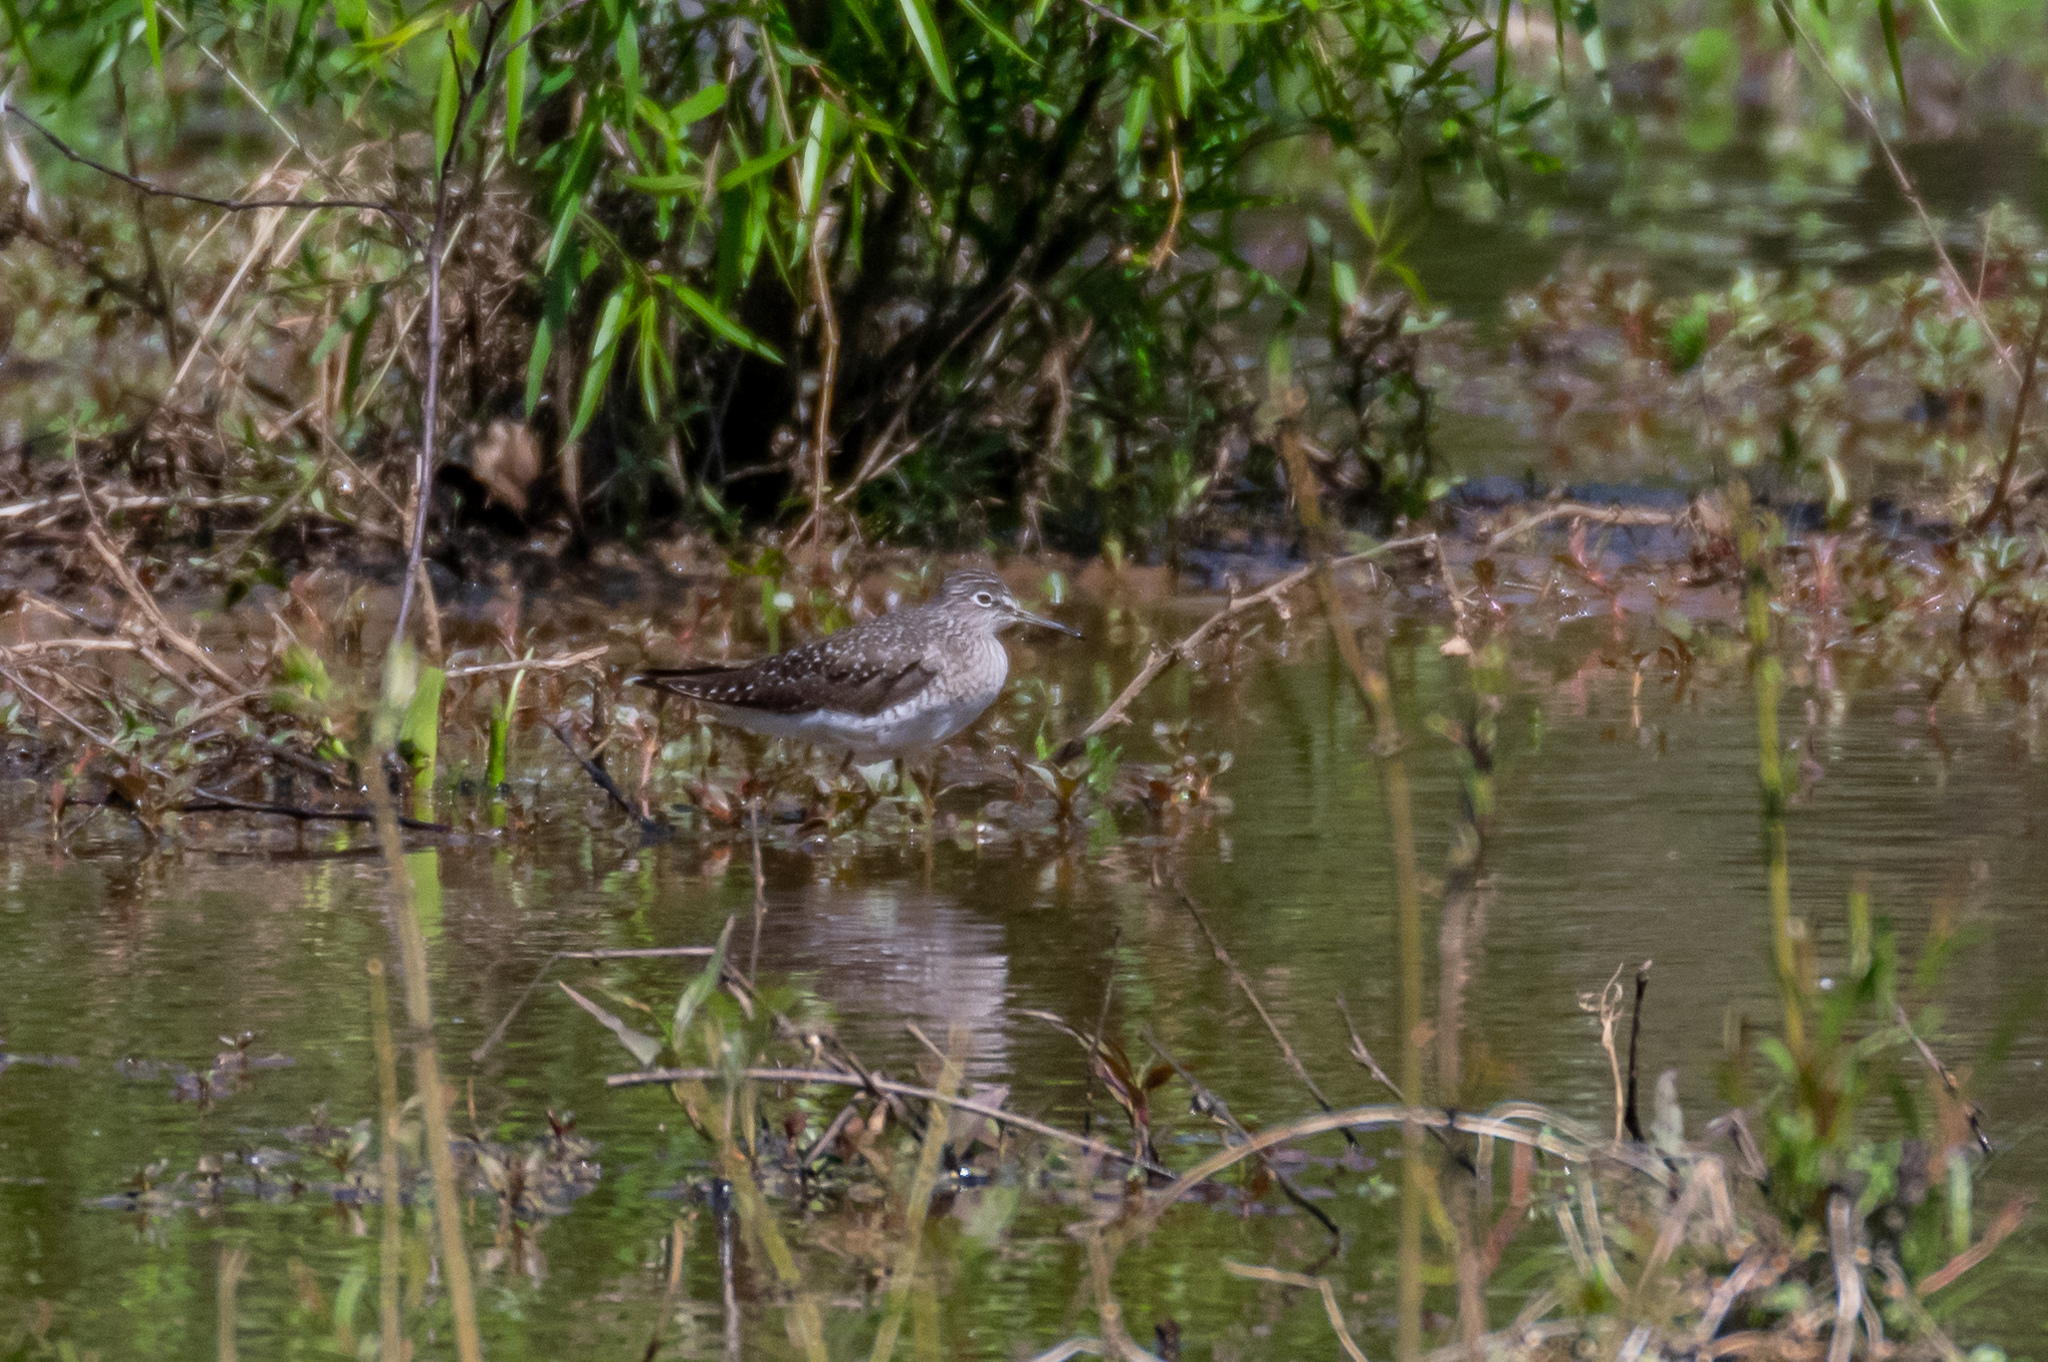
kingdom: Animalia
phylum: Chordata
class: Aves
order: Charadriiformes
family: Scolopacidae
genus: Tringa
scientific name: Tringa solitaria
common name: Solitary sandpiper
